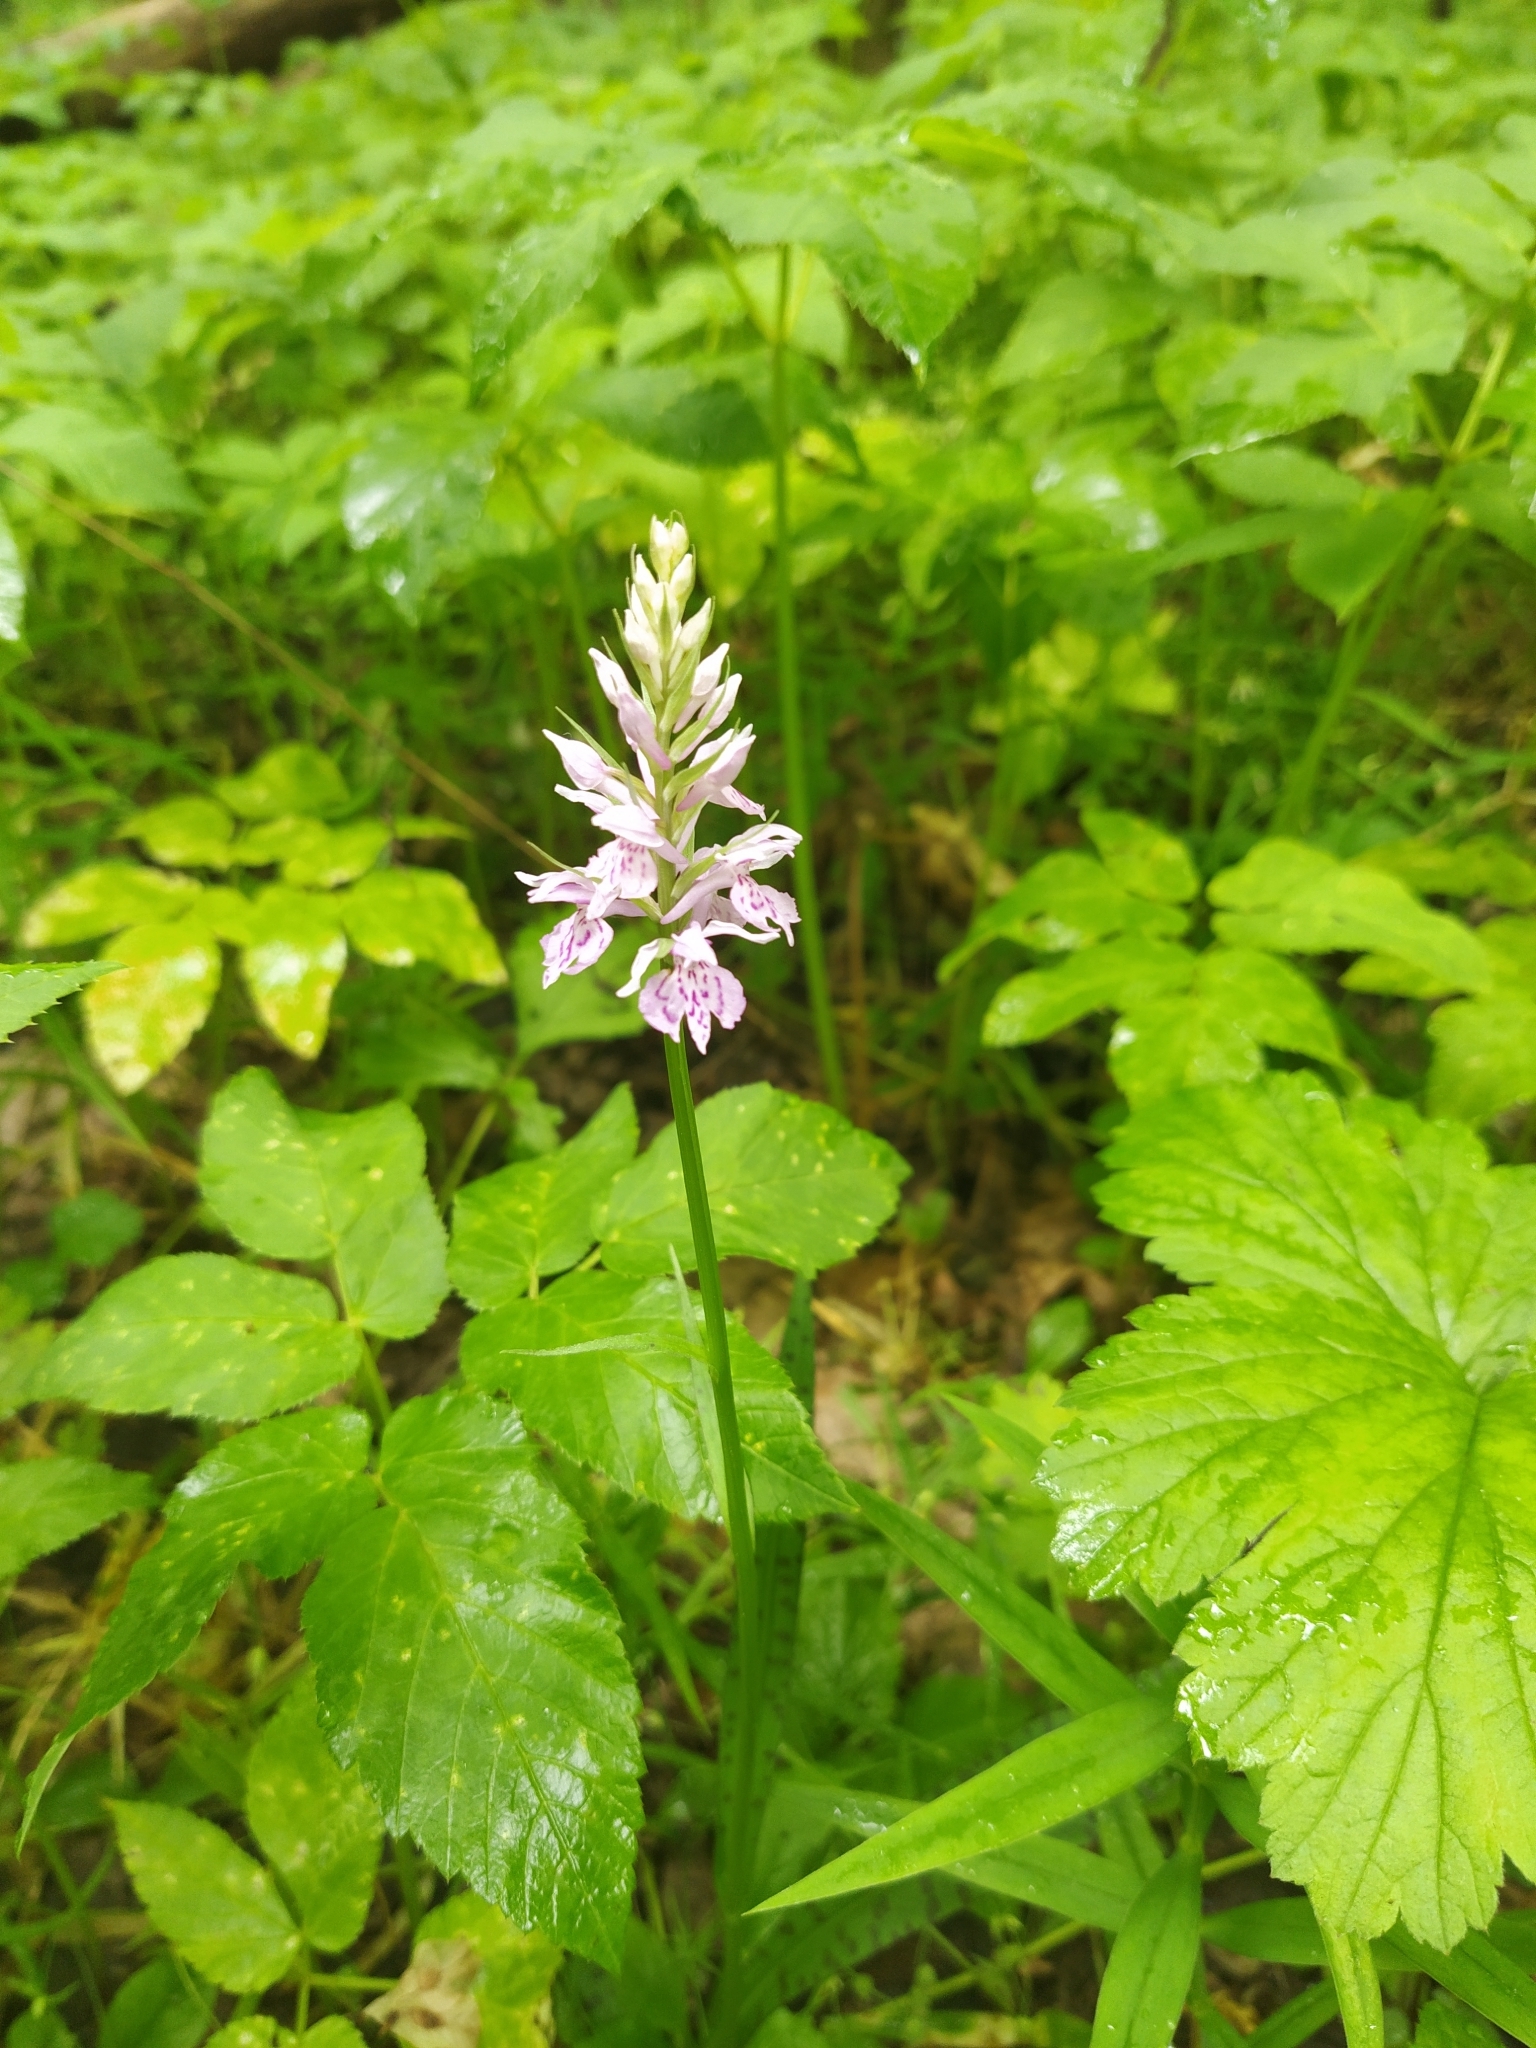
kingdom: Plantae
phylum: Tracheophyta
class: Liliopsida
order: Asparagales
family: Orchidaceae
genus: Dactylorhiza
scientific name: Dactylorhiza maculata
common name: Heath spotted-orchid
